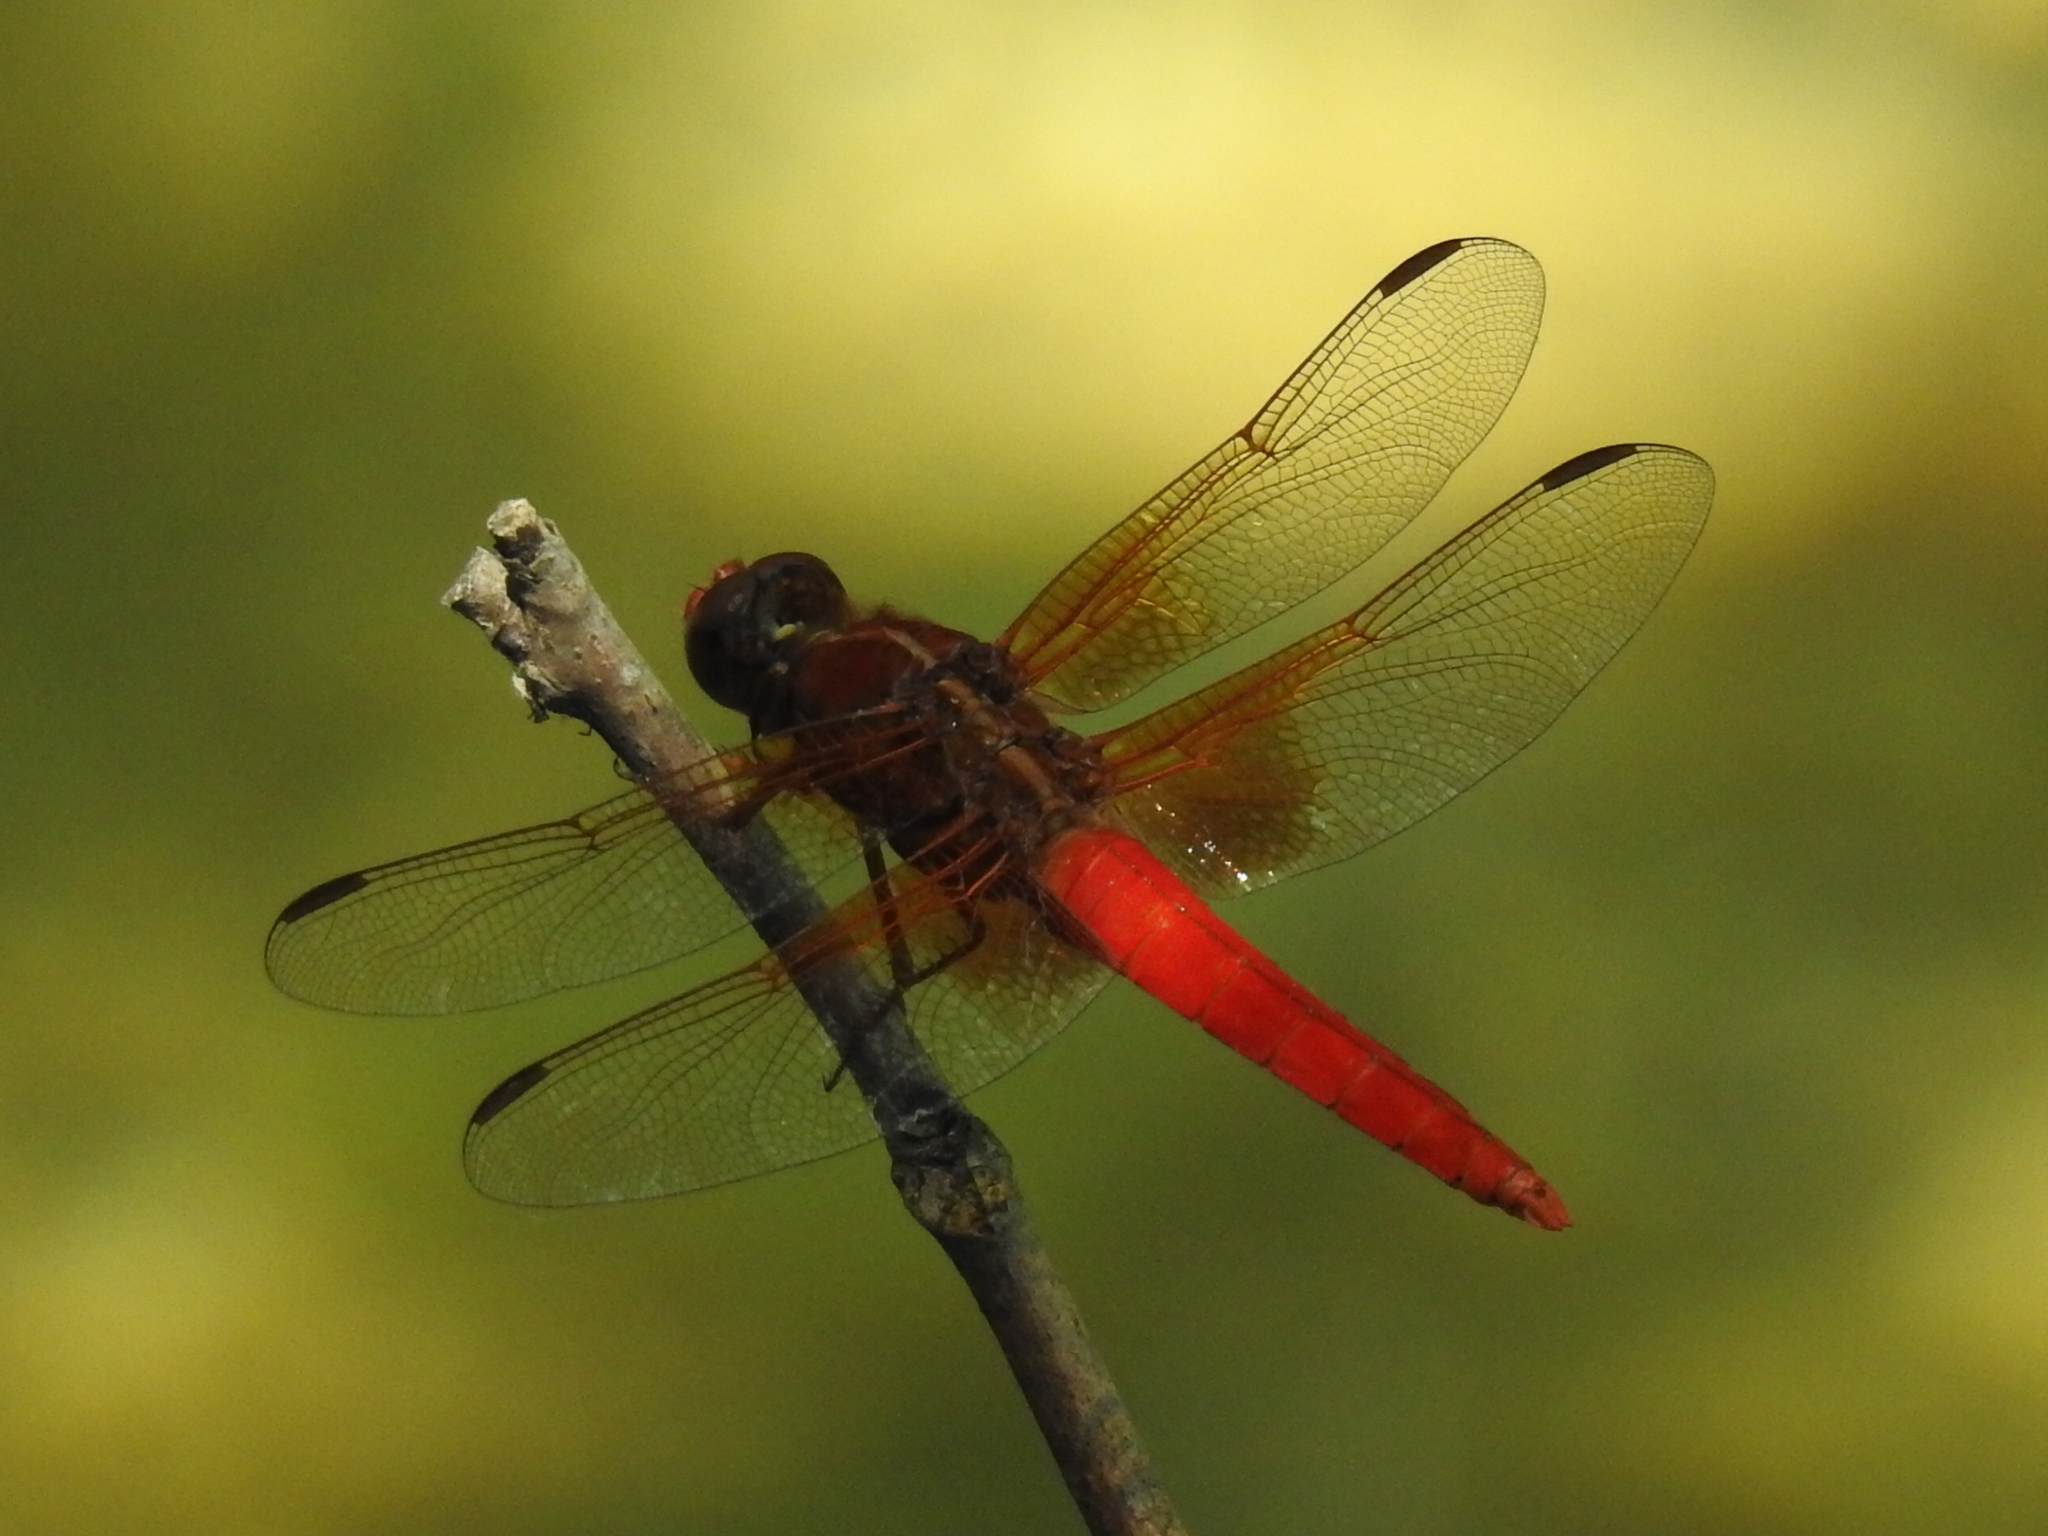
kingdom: Animalia
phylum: Arthropoda
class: Insecta
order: Odonata
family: Libellulidae
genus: Libellula
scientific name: Libellula croceipennis
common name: Neon skimmer
